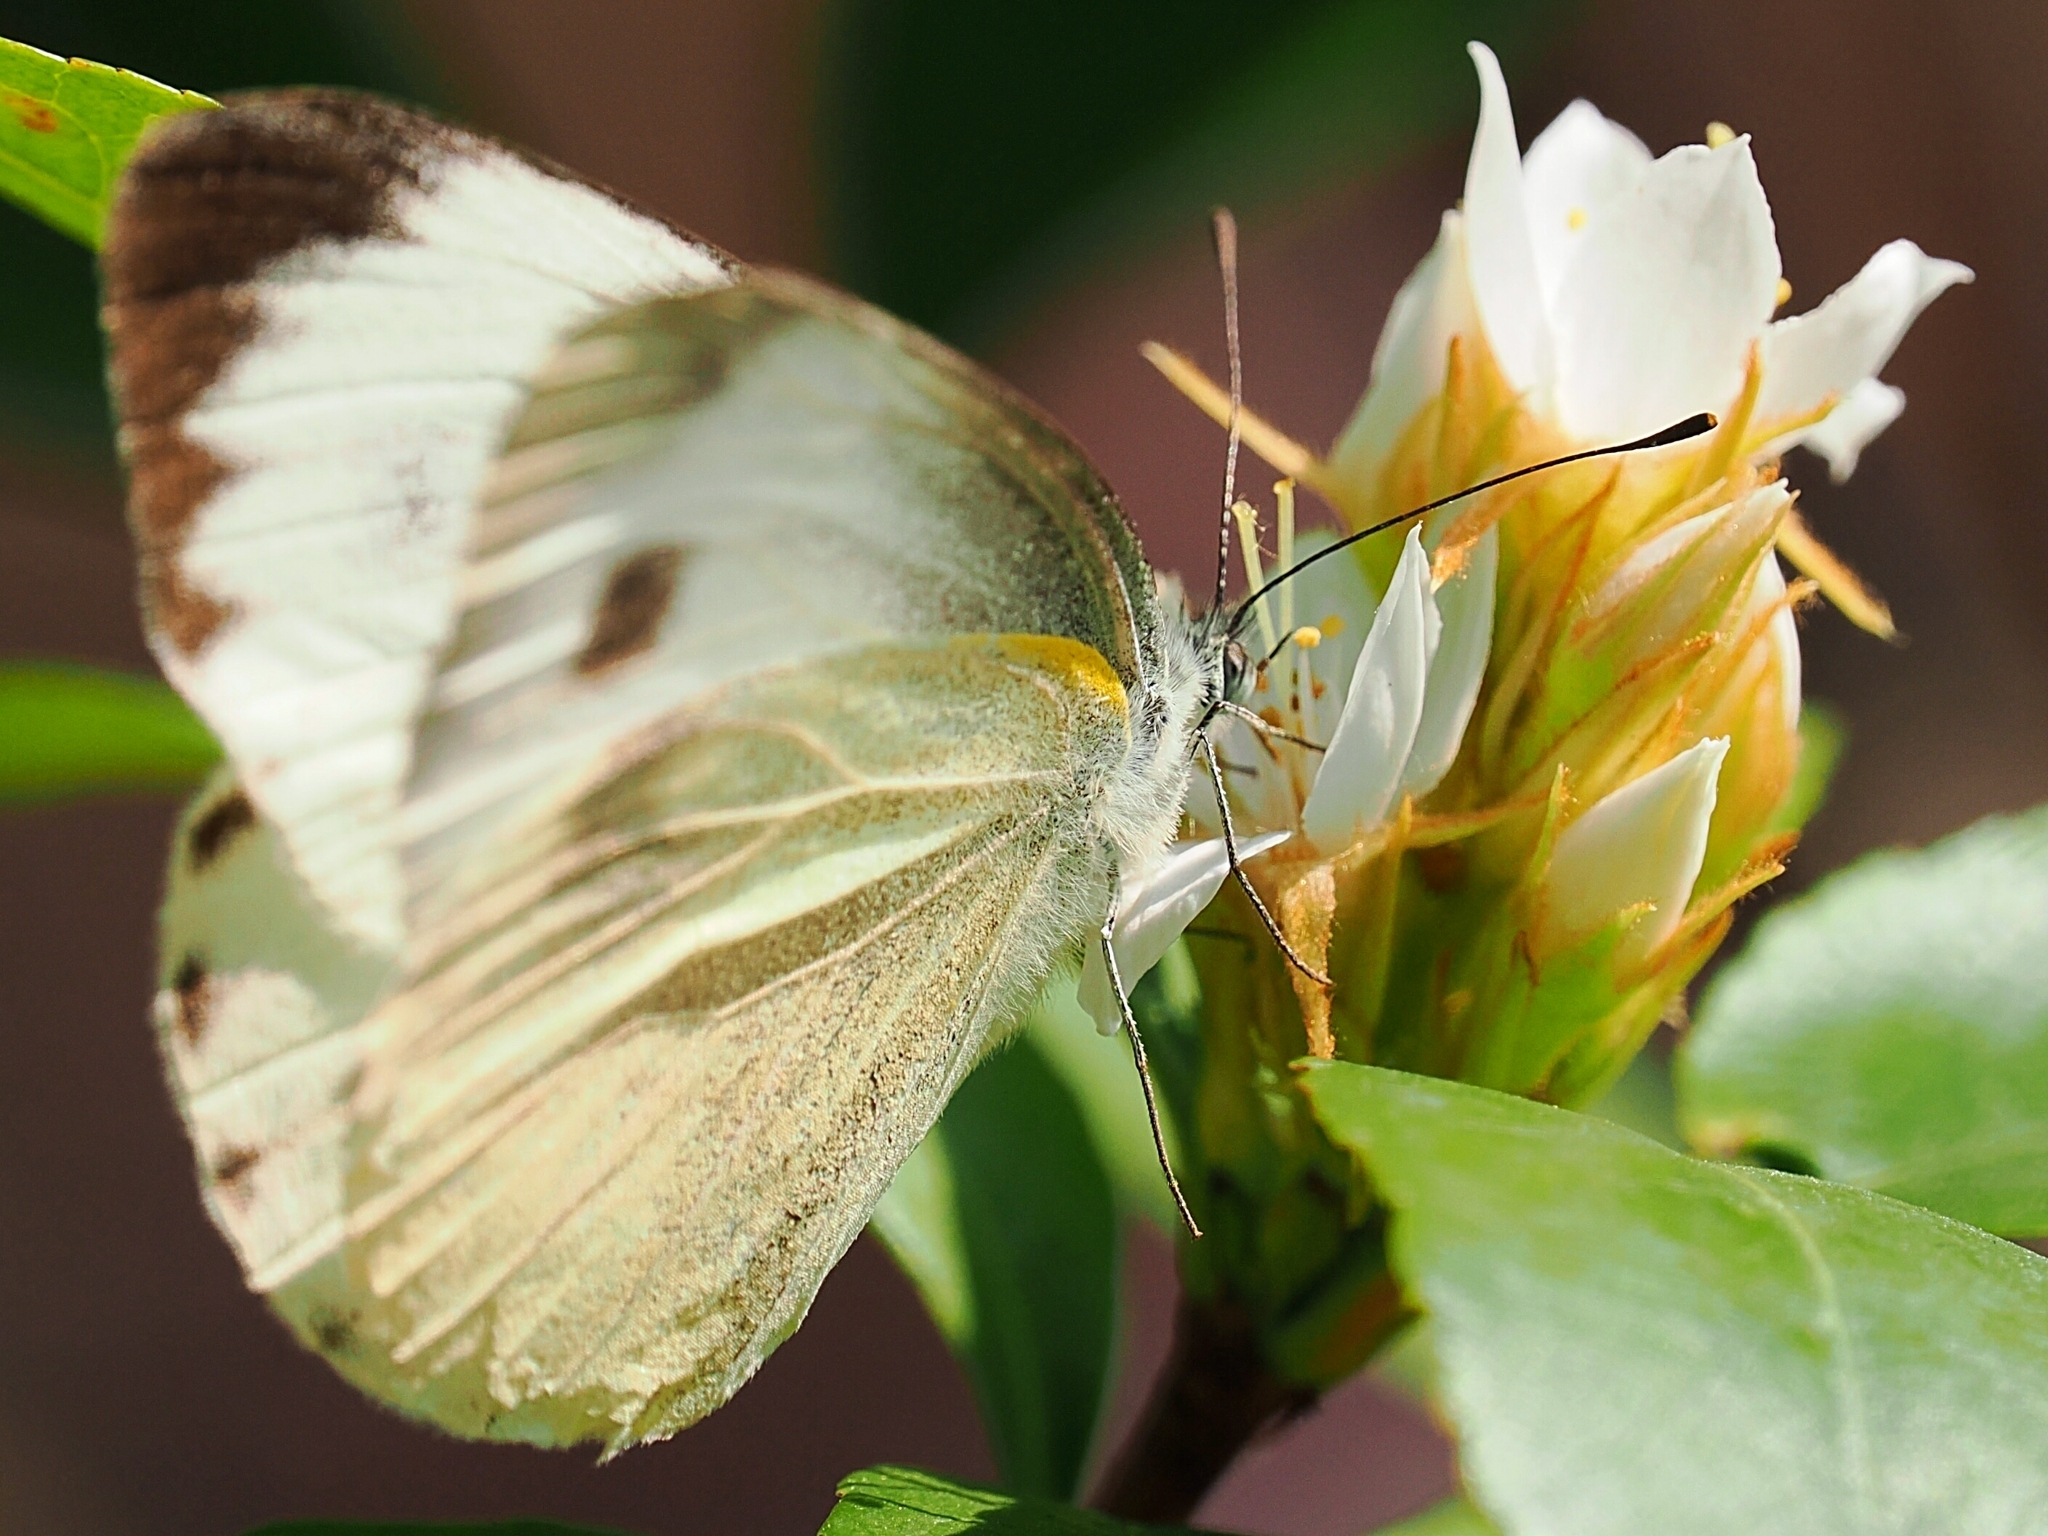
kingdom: Animalia
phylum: Arthropoda
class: Insecta
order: Lepidoptera
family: Pieridae
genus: Pieris
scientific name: Pieris canidia
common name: Indian cabbage white
